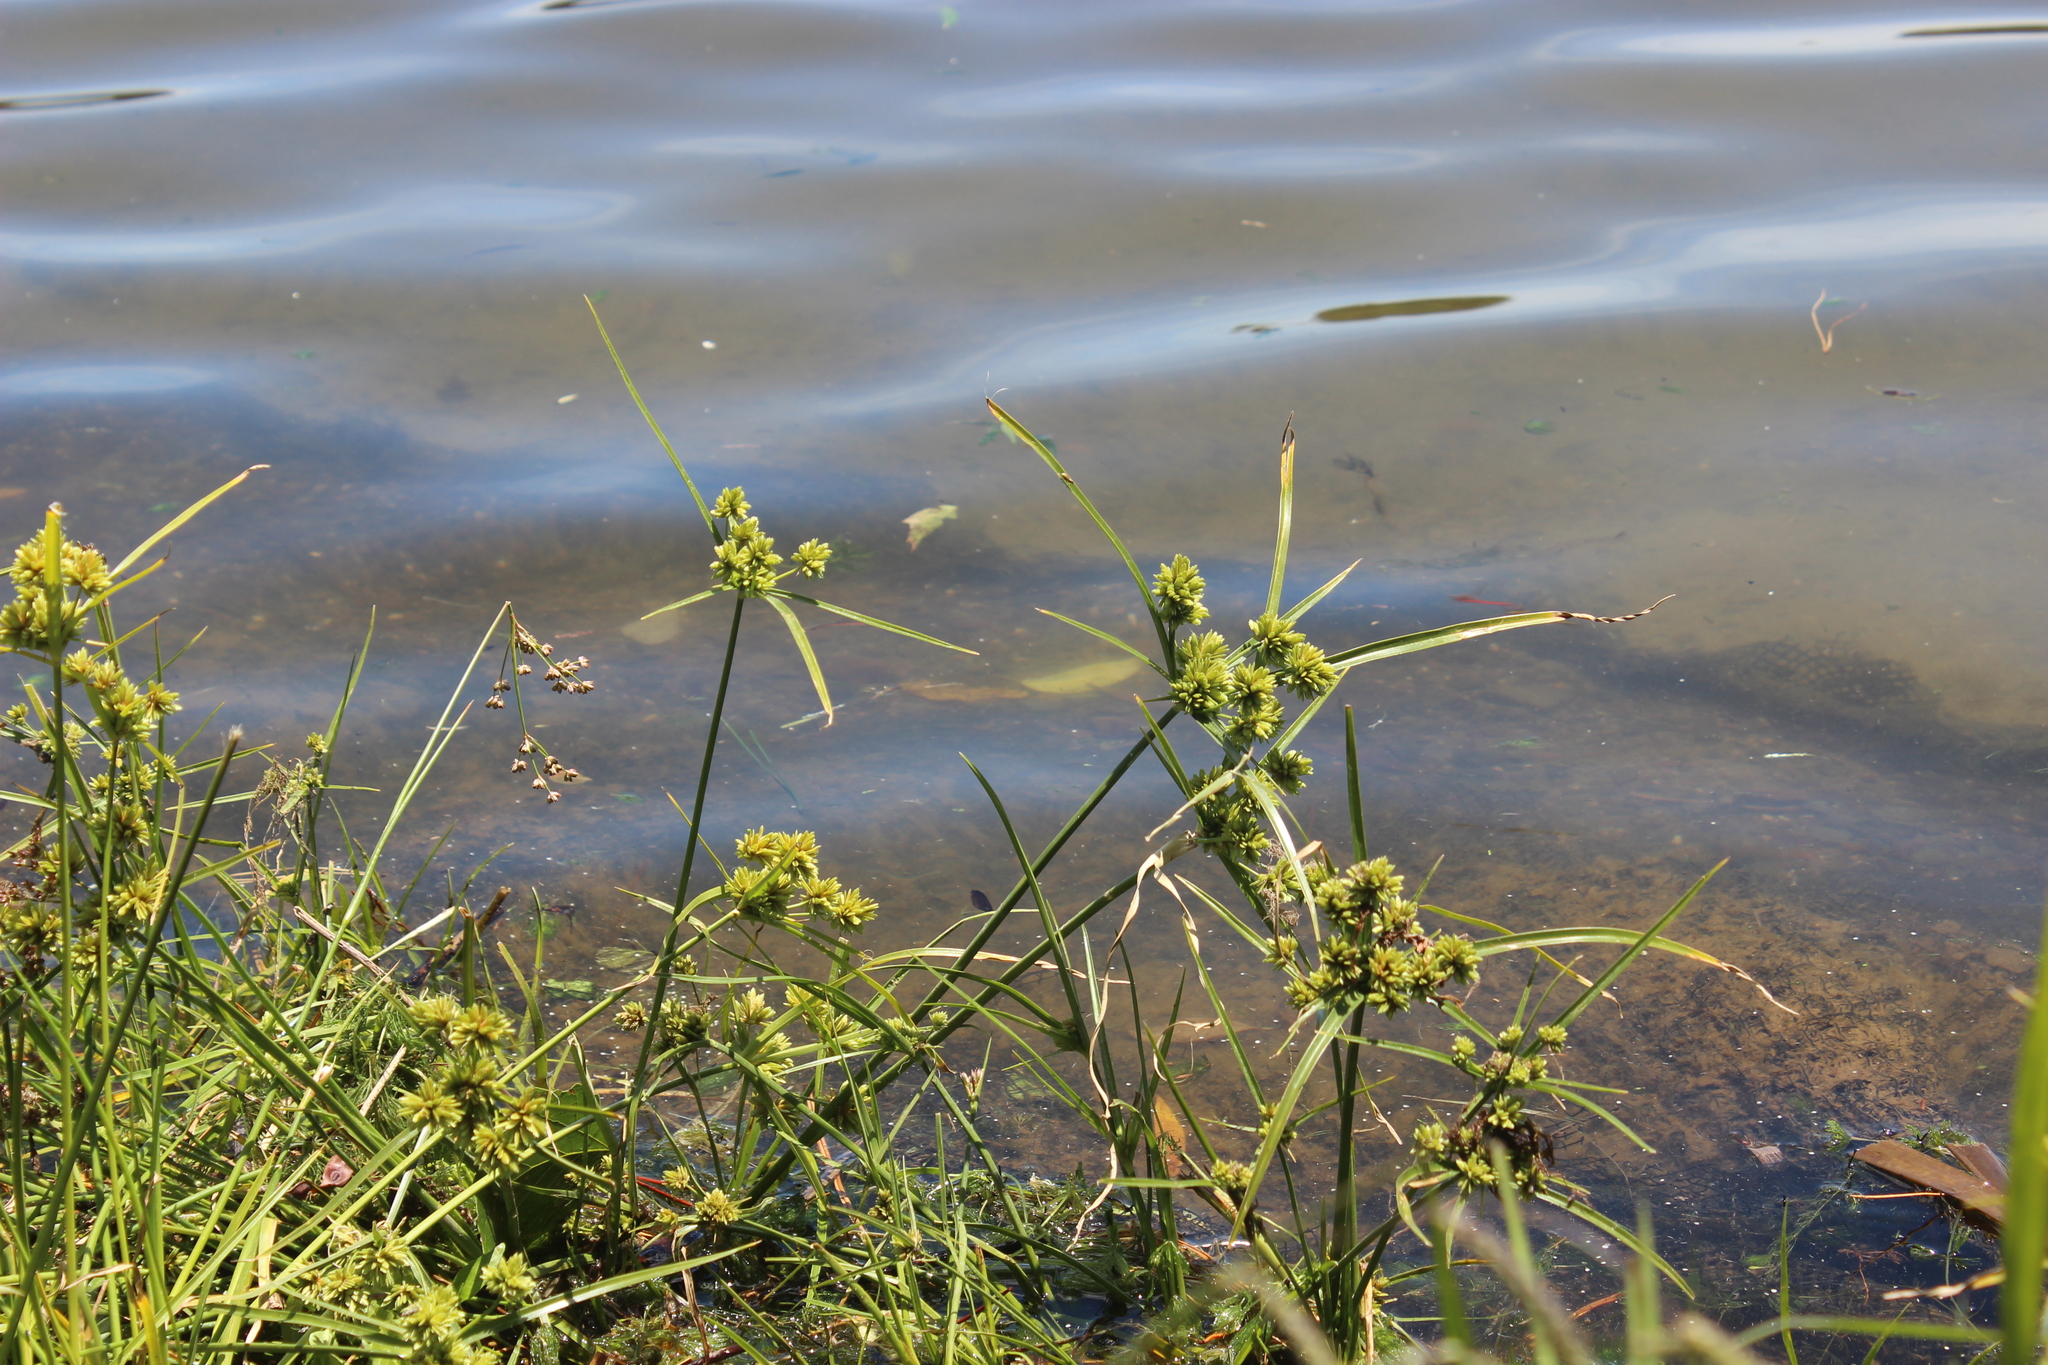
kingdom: Plantae
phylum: Tracheophyta
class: Liliopsida
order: Poales
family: Cyperaceae
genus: Cyperus
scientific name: Cyperus eragrostis
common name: Tall flatsedge
